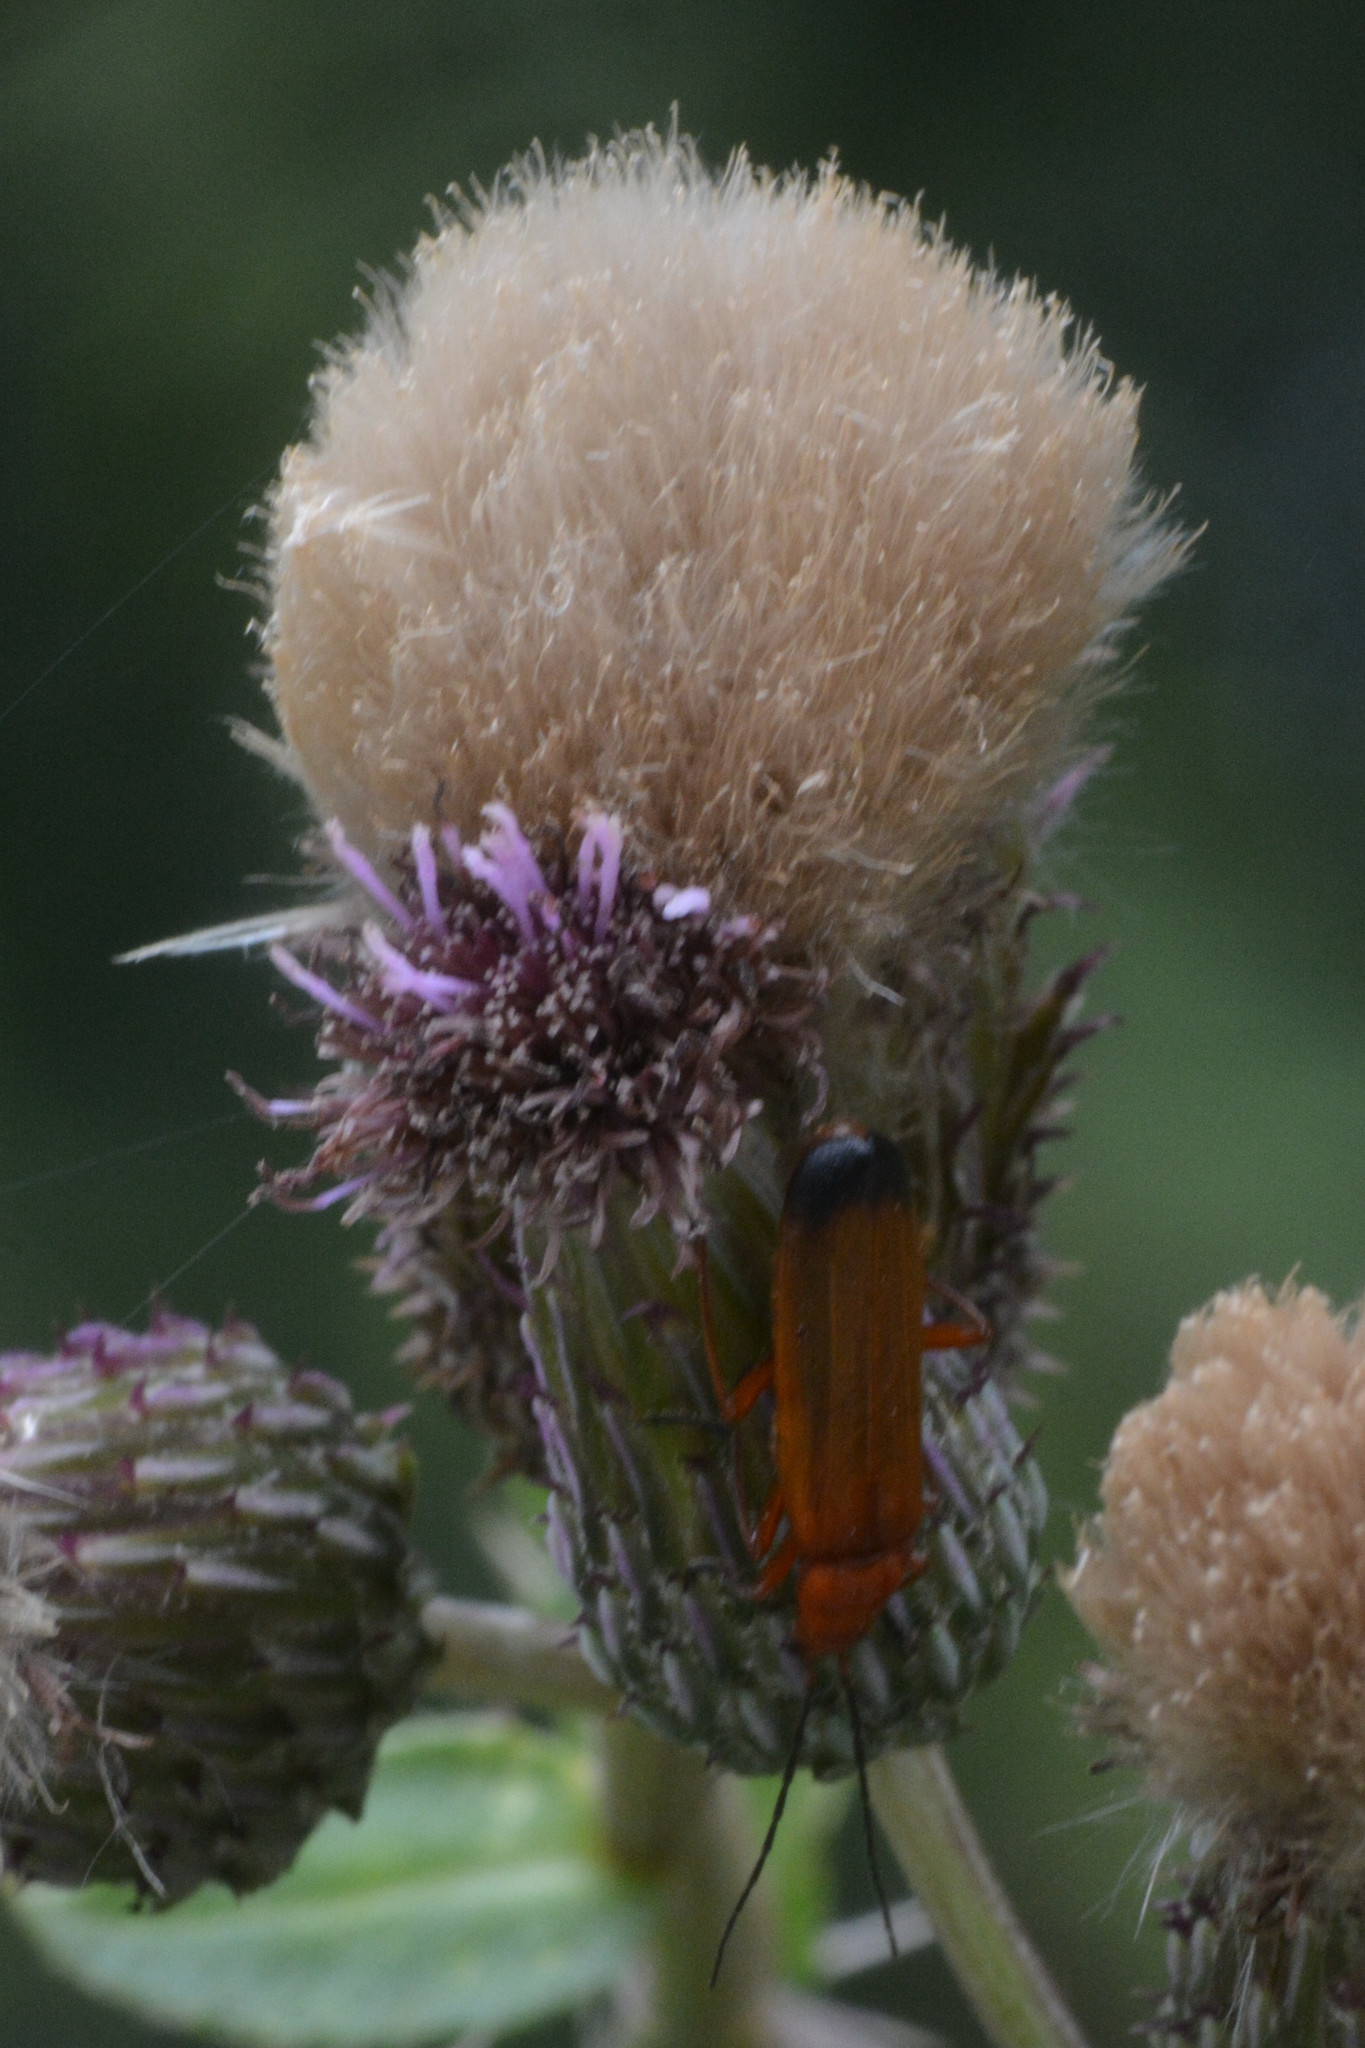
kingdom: Animalia
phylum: Arthropoda
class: Insecta
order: Coleoptera
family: Cantharidae
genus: Rhagonycha
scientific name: Rhagonycha fulva
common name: Common red soldier beetle
